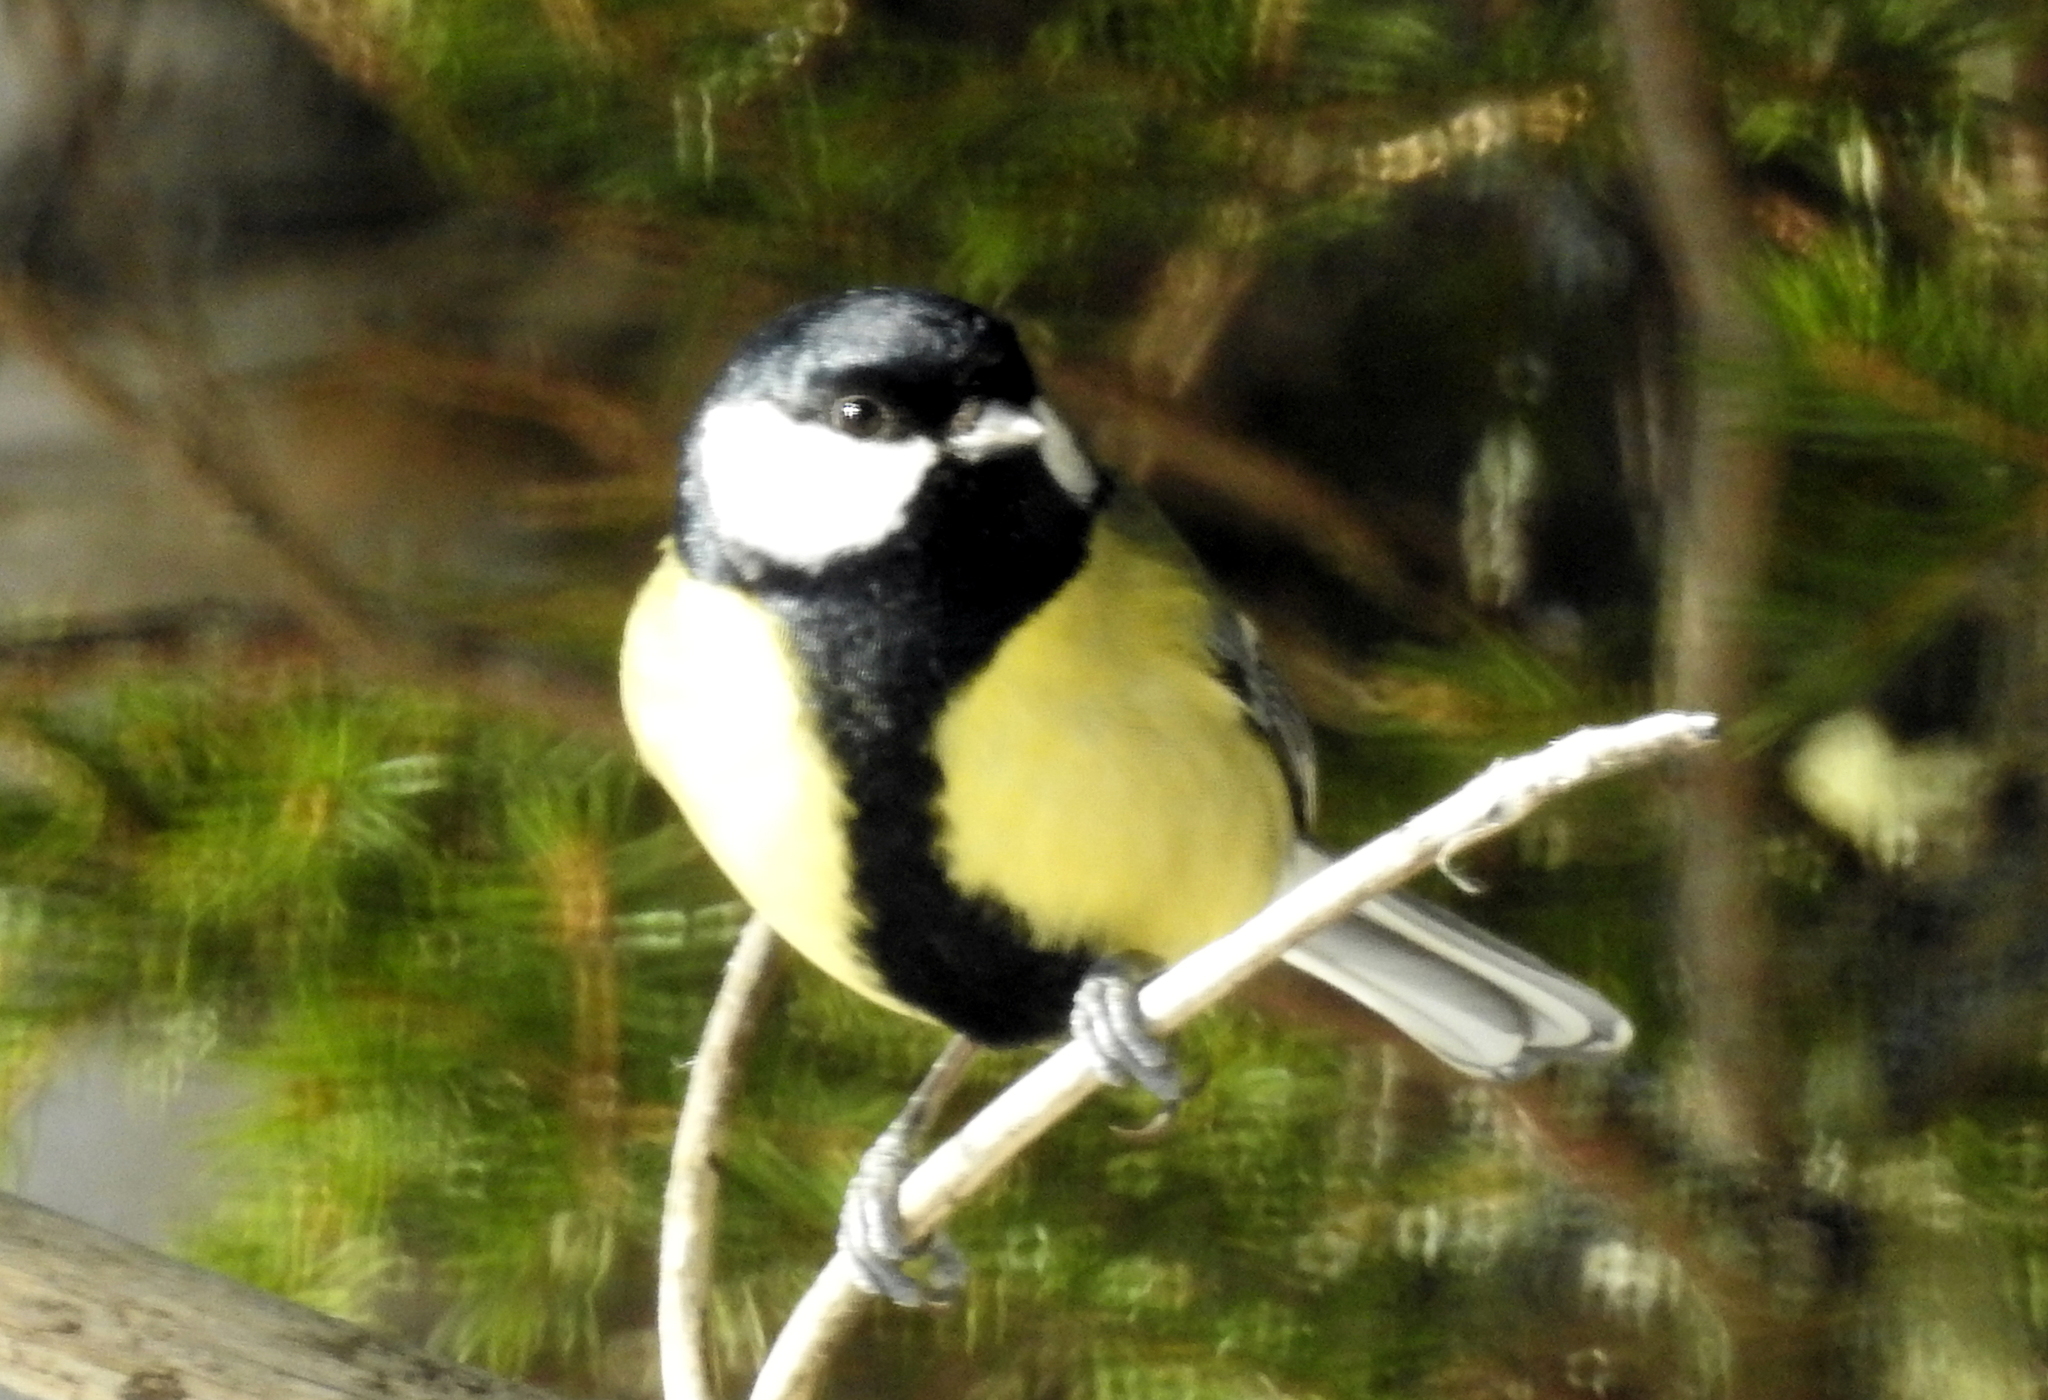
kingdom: Animalia
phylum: Chordata
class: Aves
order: Passeriformes
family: Paridae
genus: Parus
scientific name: Parus major
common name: Great tit
